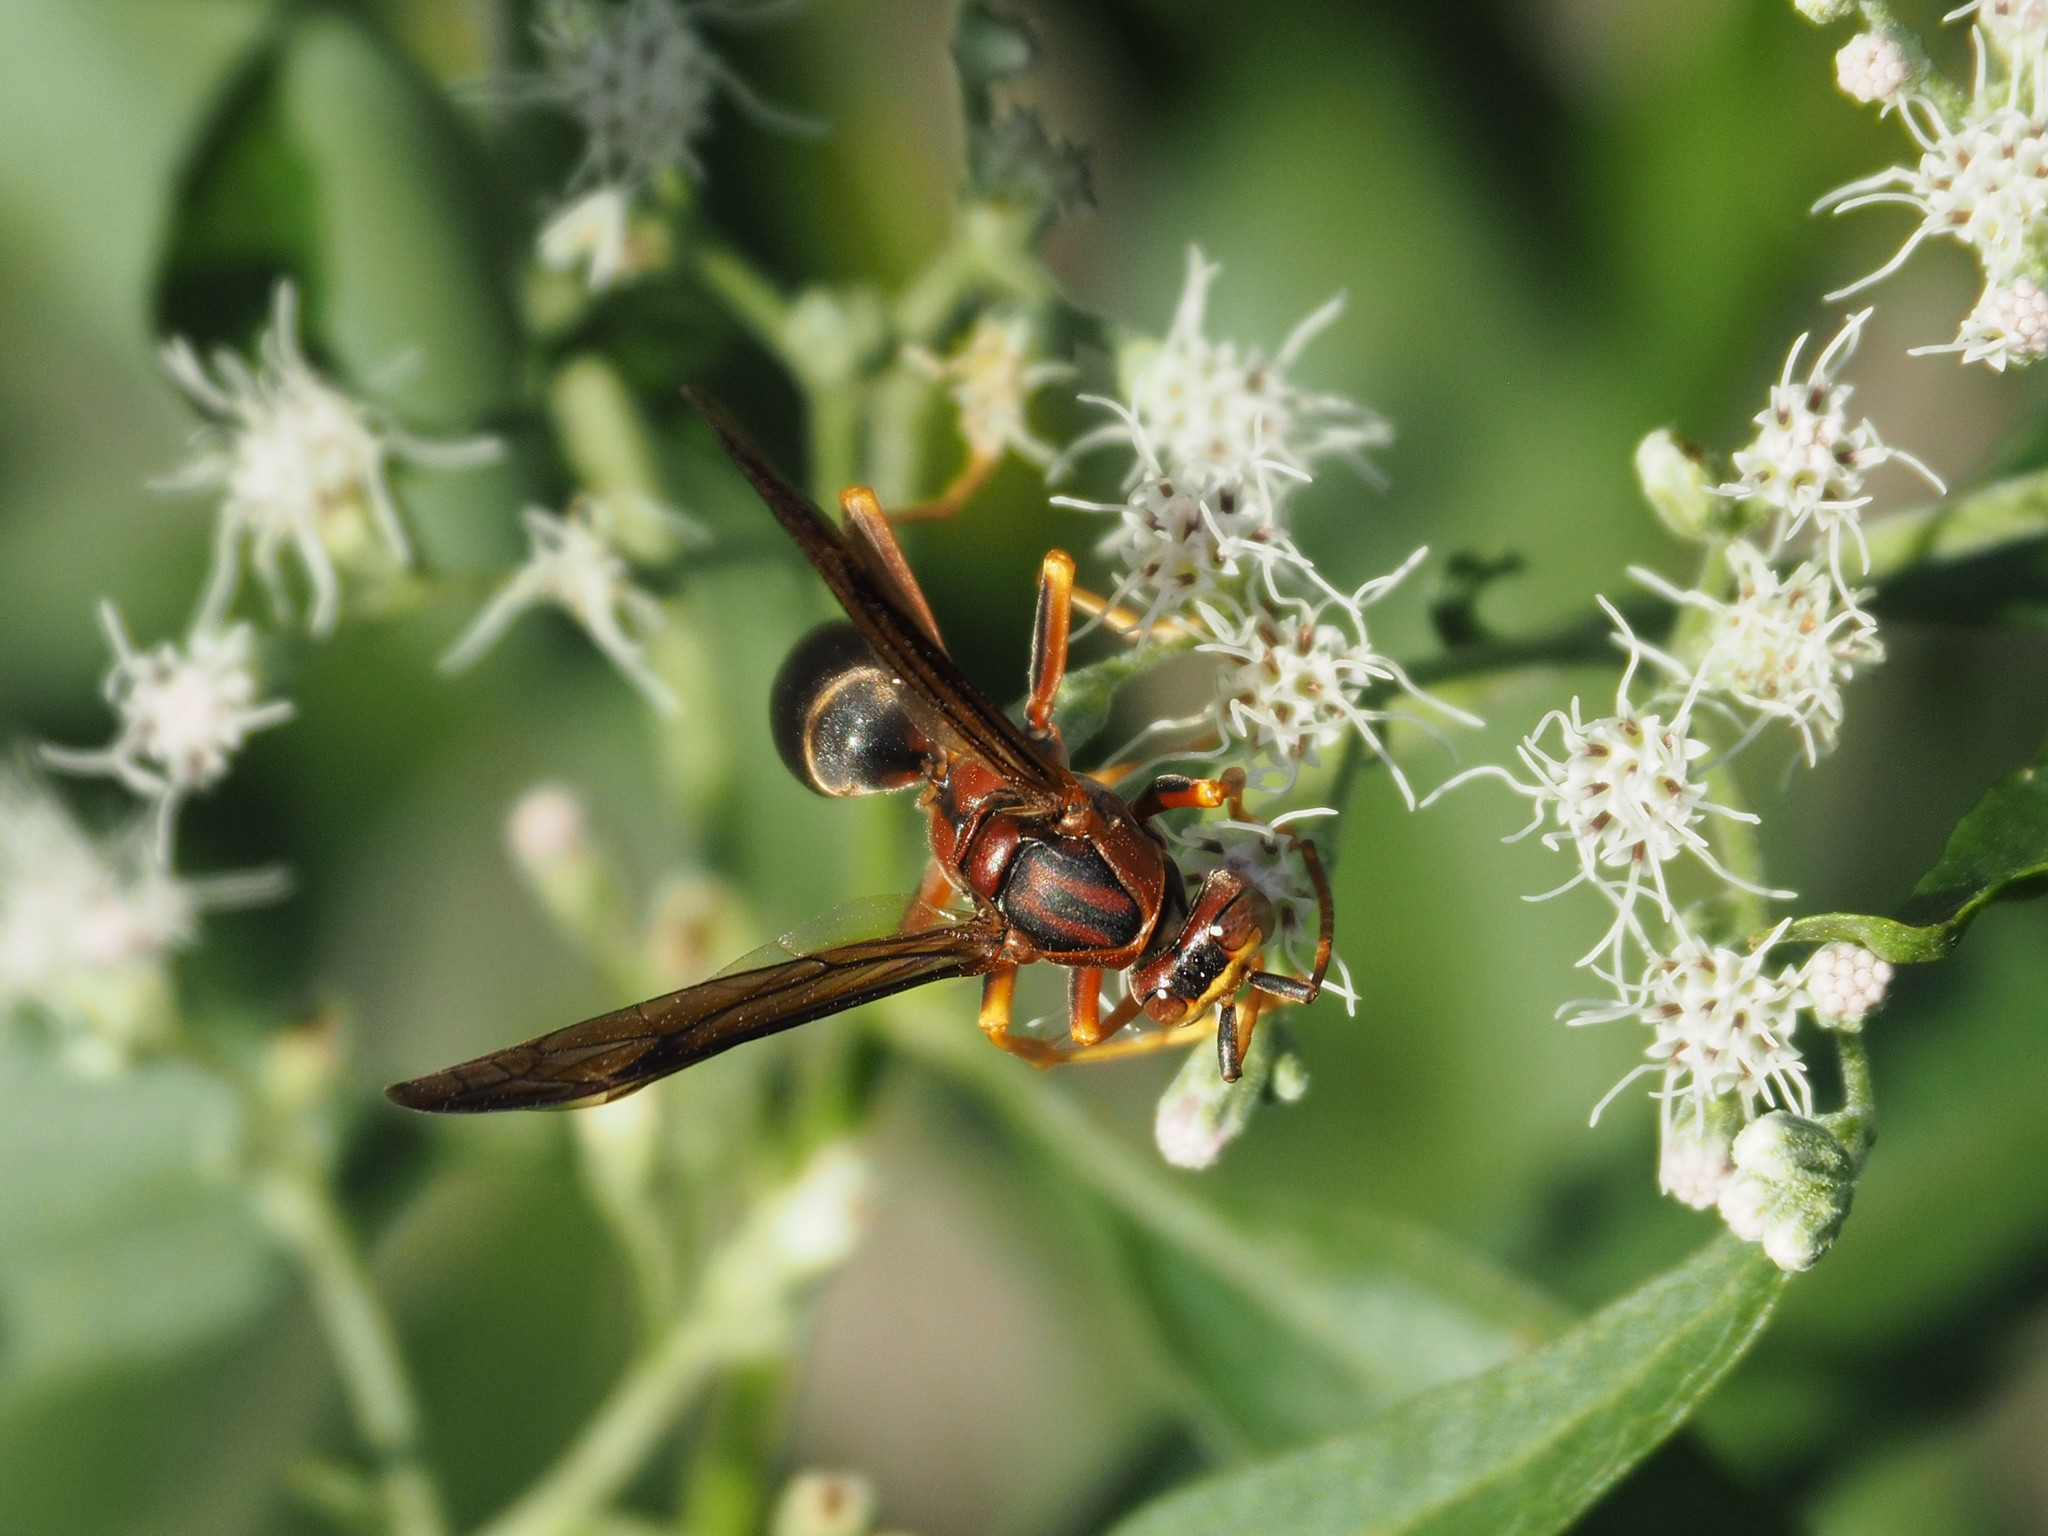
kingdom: Animalia
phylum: Arthropoda
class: Insecta
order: Hymenoptera
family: Eumenidae
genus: Polistes
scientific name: Polistes metricus
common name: Metric paper wasp
